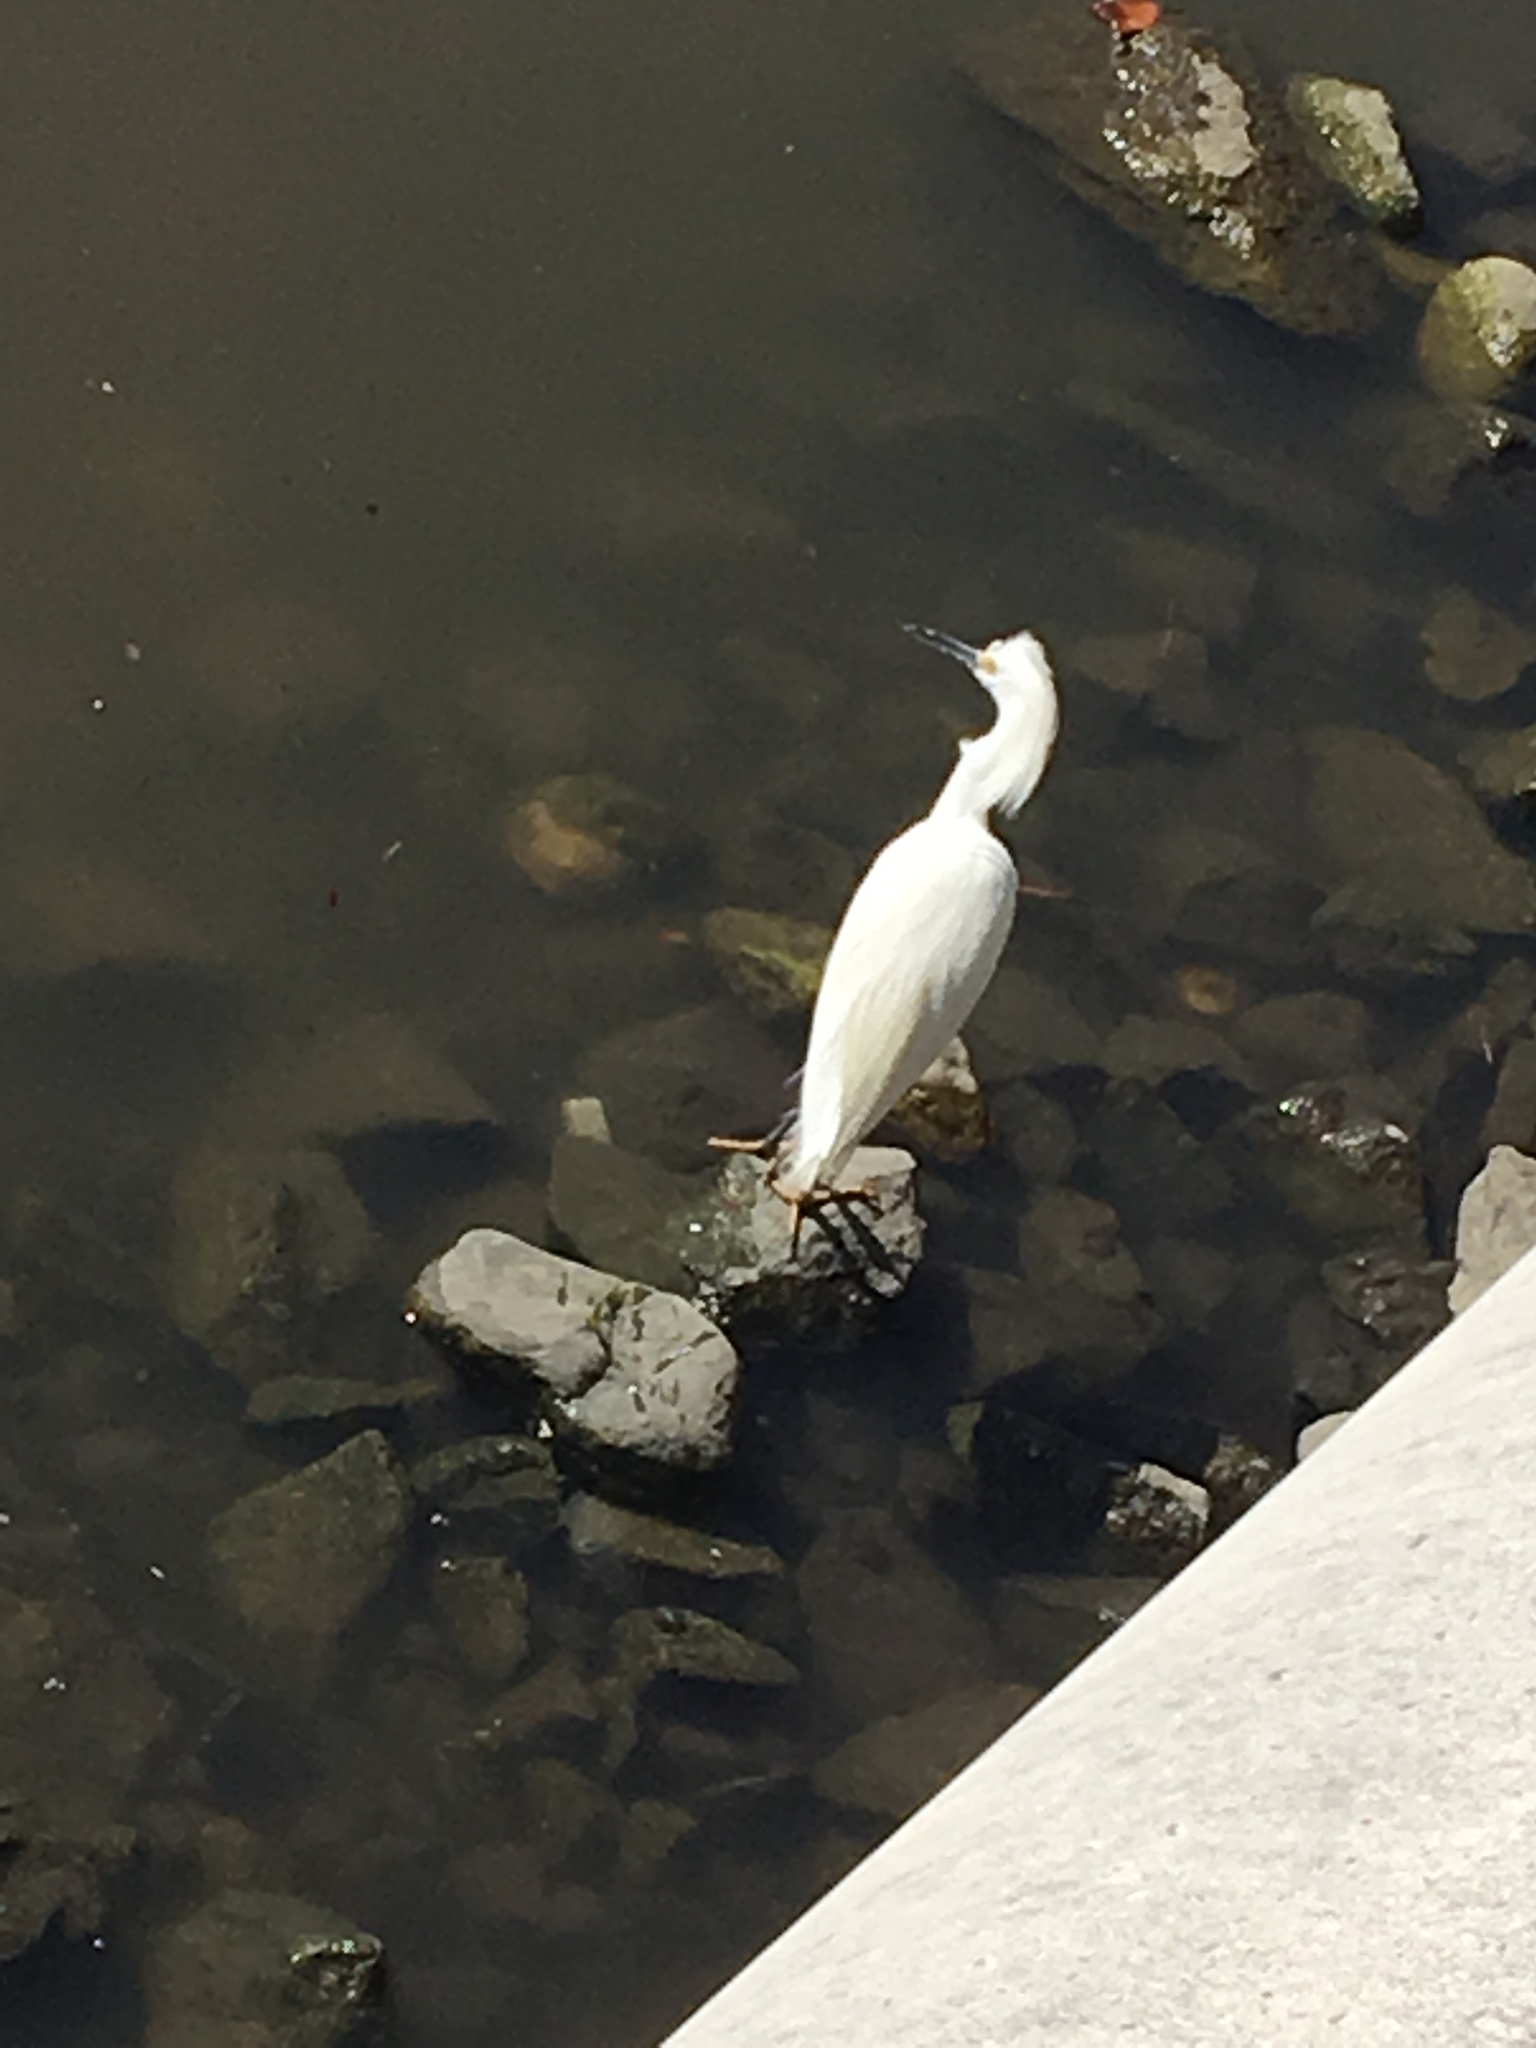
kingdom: Animalia
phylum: Chordata
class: Aves
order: Pelecaniformes
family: Ardeidae
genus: Egretta
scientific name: Egretta thula
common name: Snowy egret
